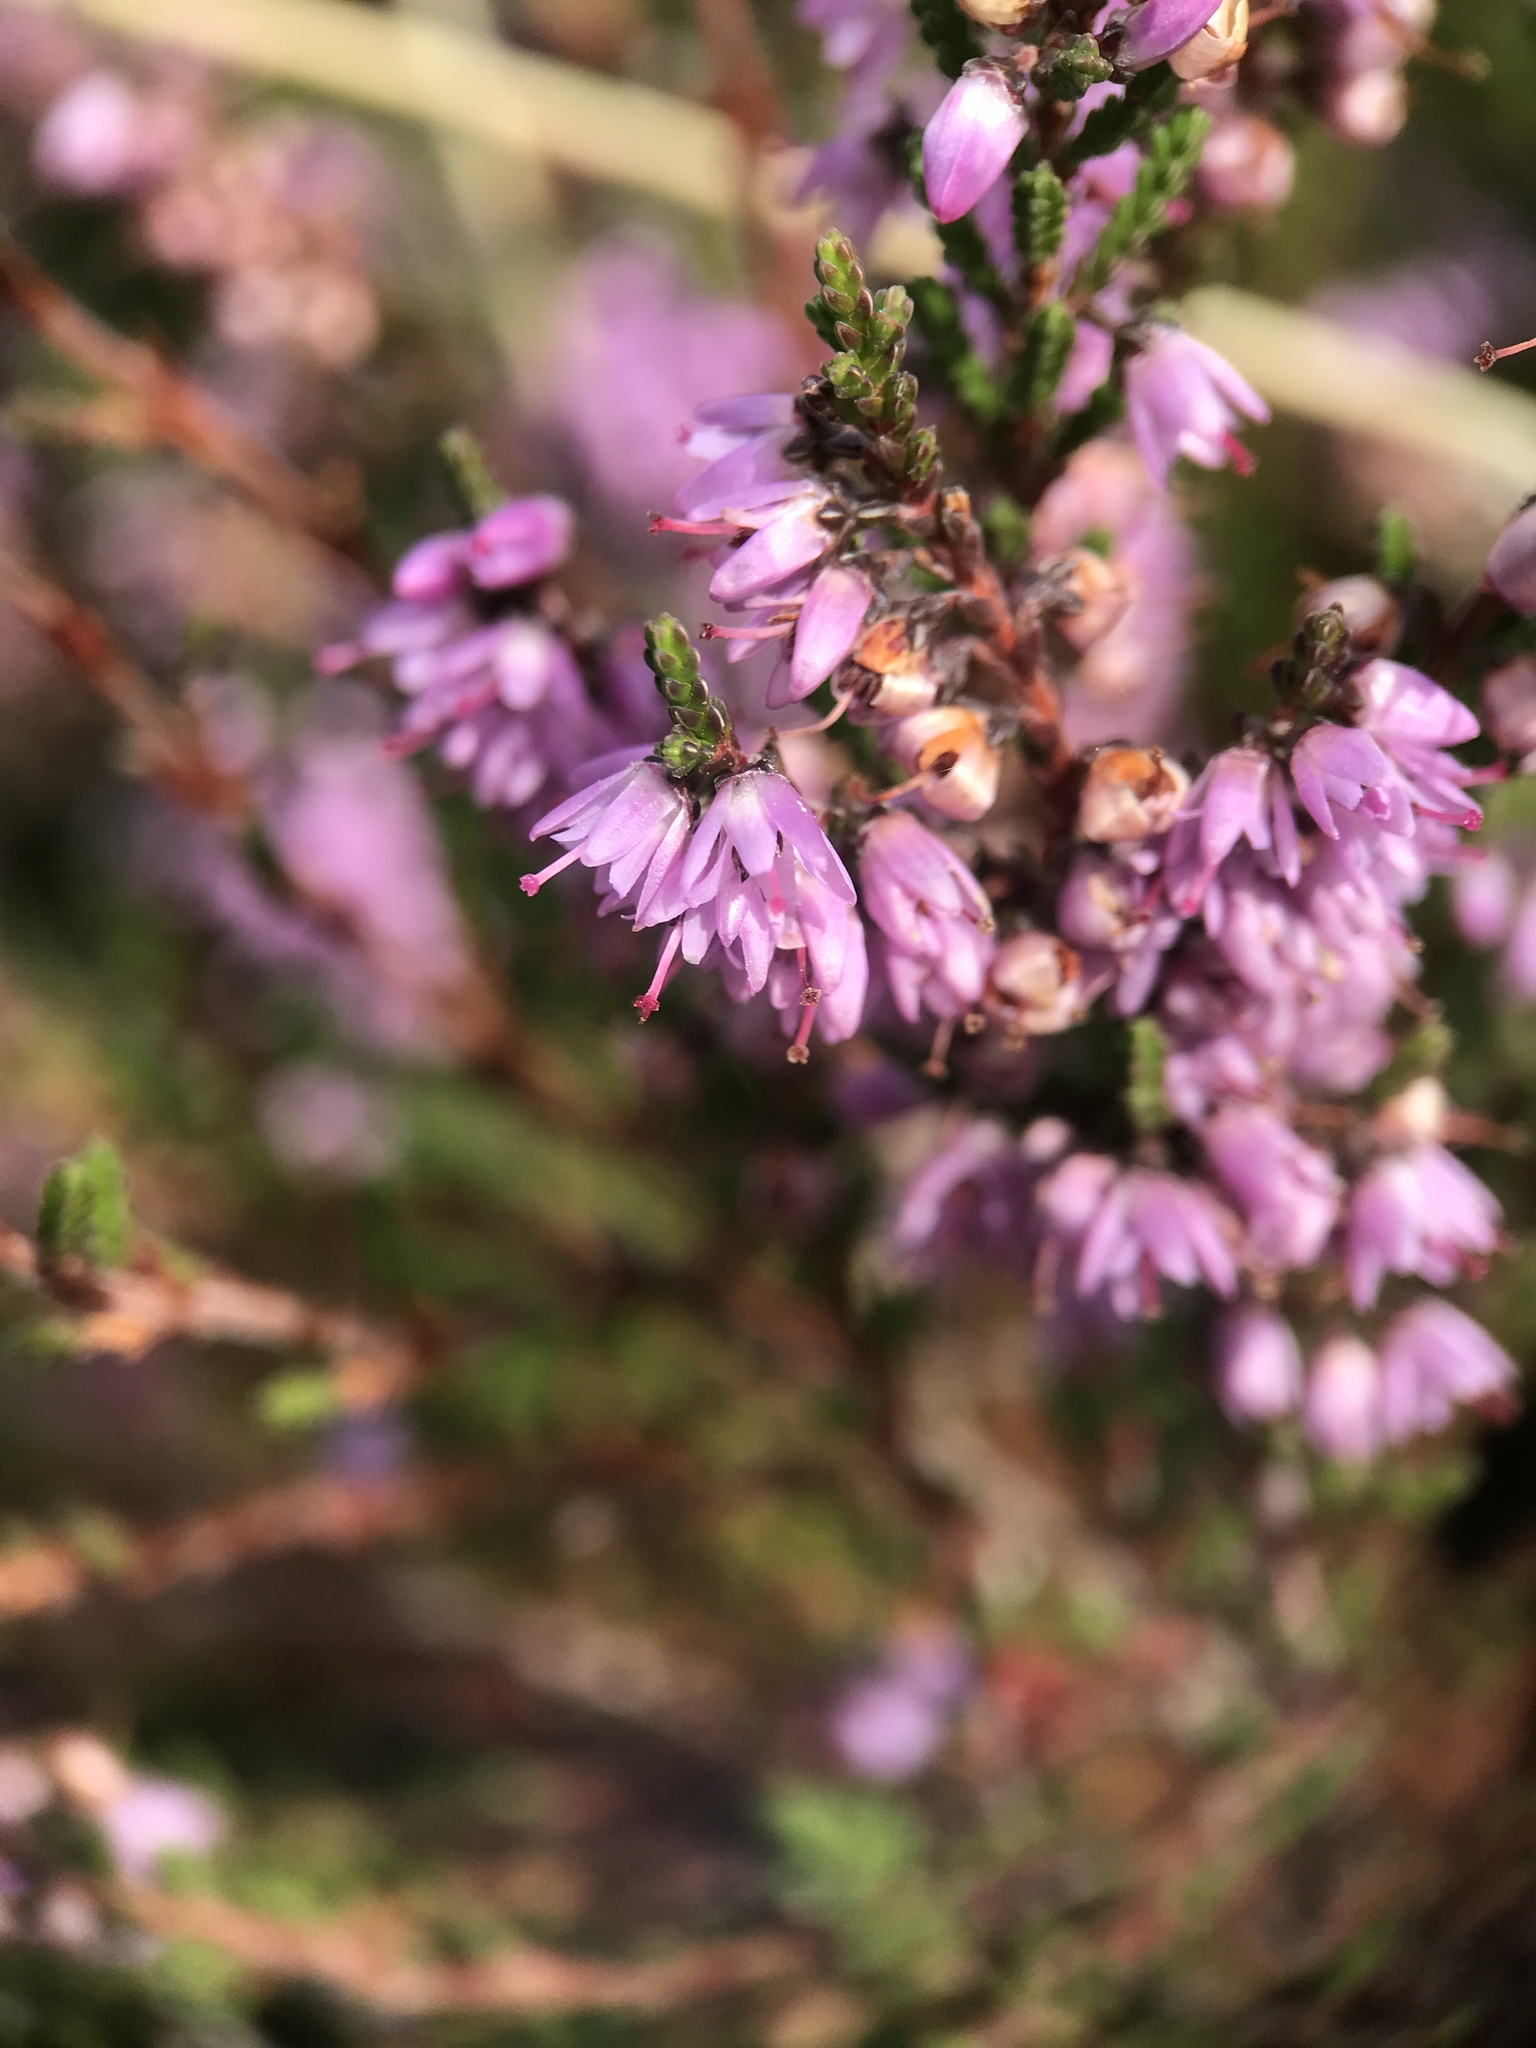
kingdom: Plantae
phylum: Tracheophyta
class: Magnoliopsida
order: Ericales
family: Ericaceae
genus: Calluna
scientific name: Calluna vulgaris
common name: Heather
